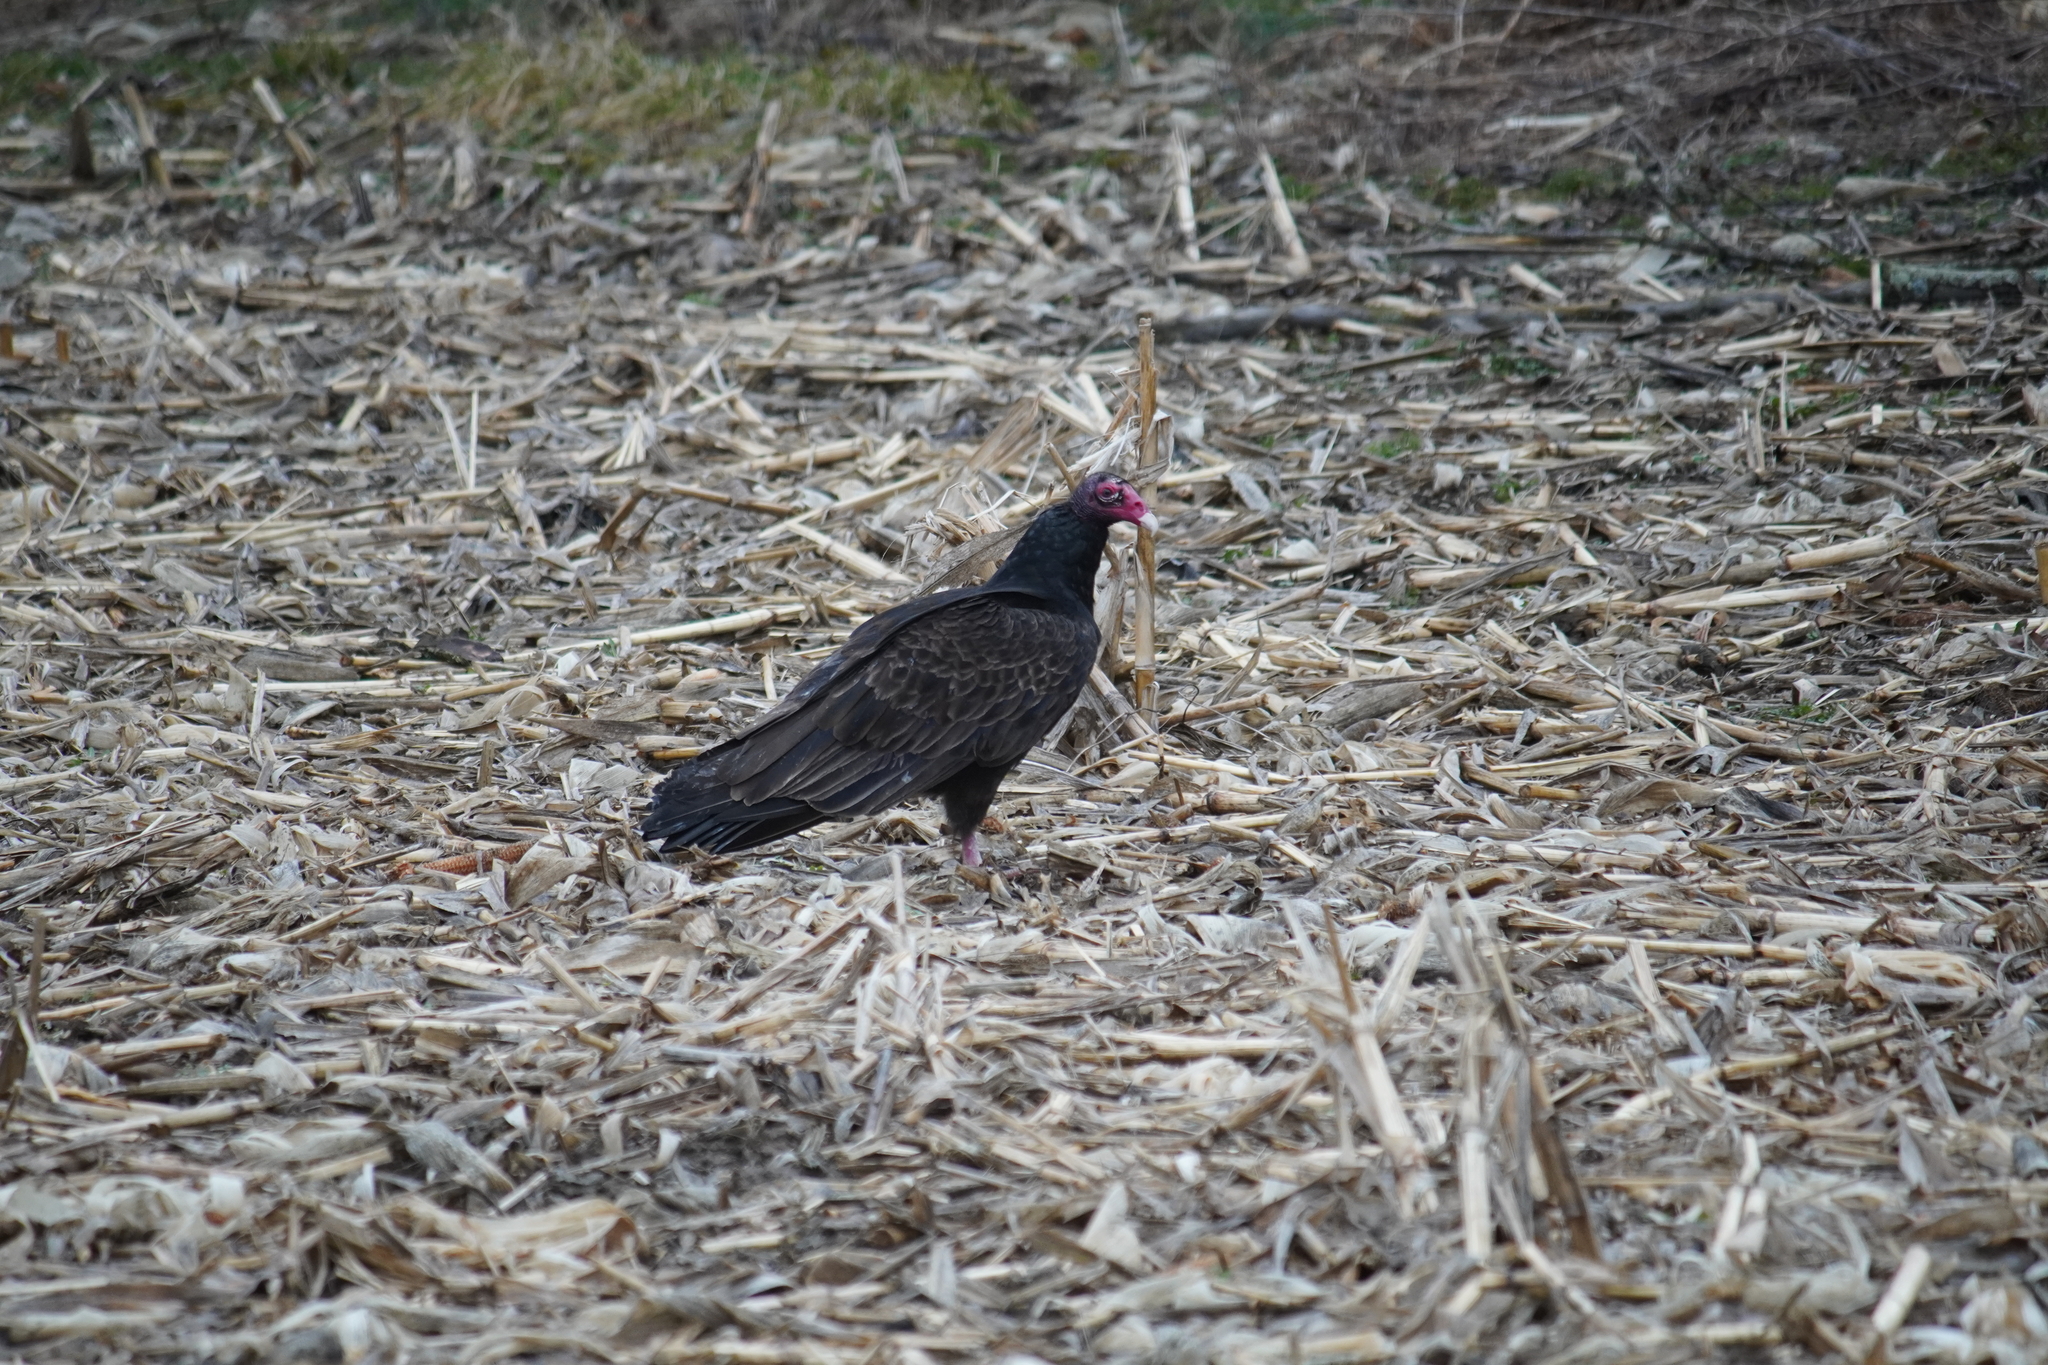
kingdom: Animalia
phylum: Chordata
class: Aves
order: Accipitriformes
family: Cathartidae
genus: Cathartes
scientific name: Cathartes aura
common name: Turkey vulture
